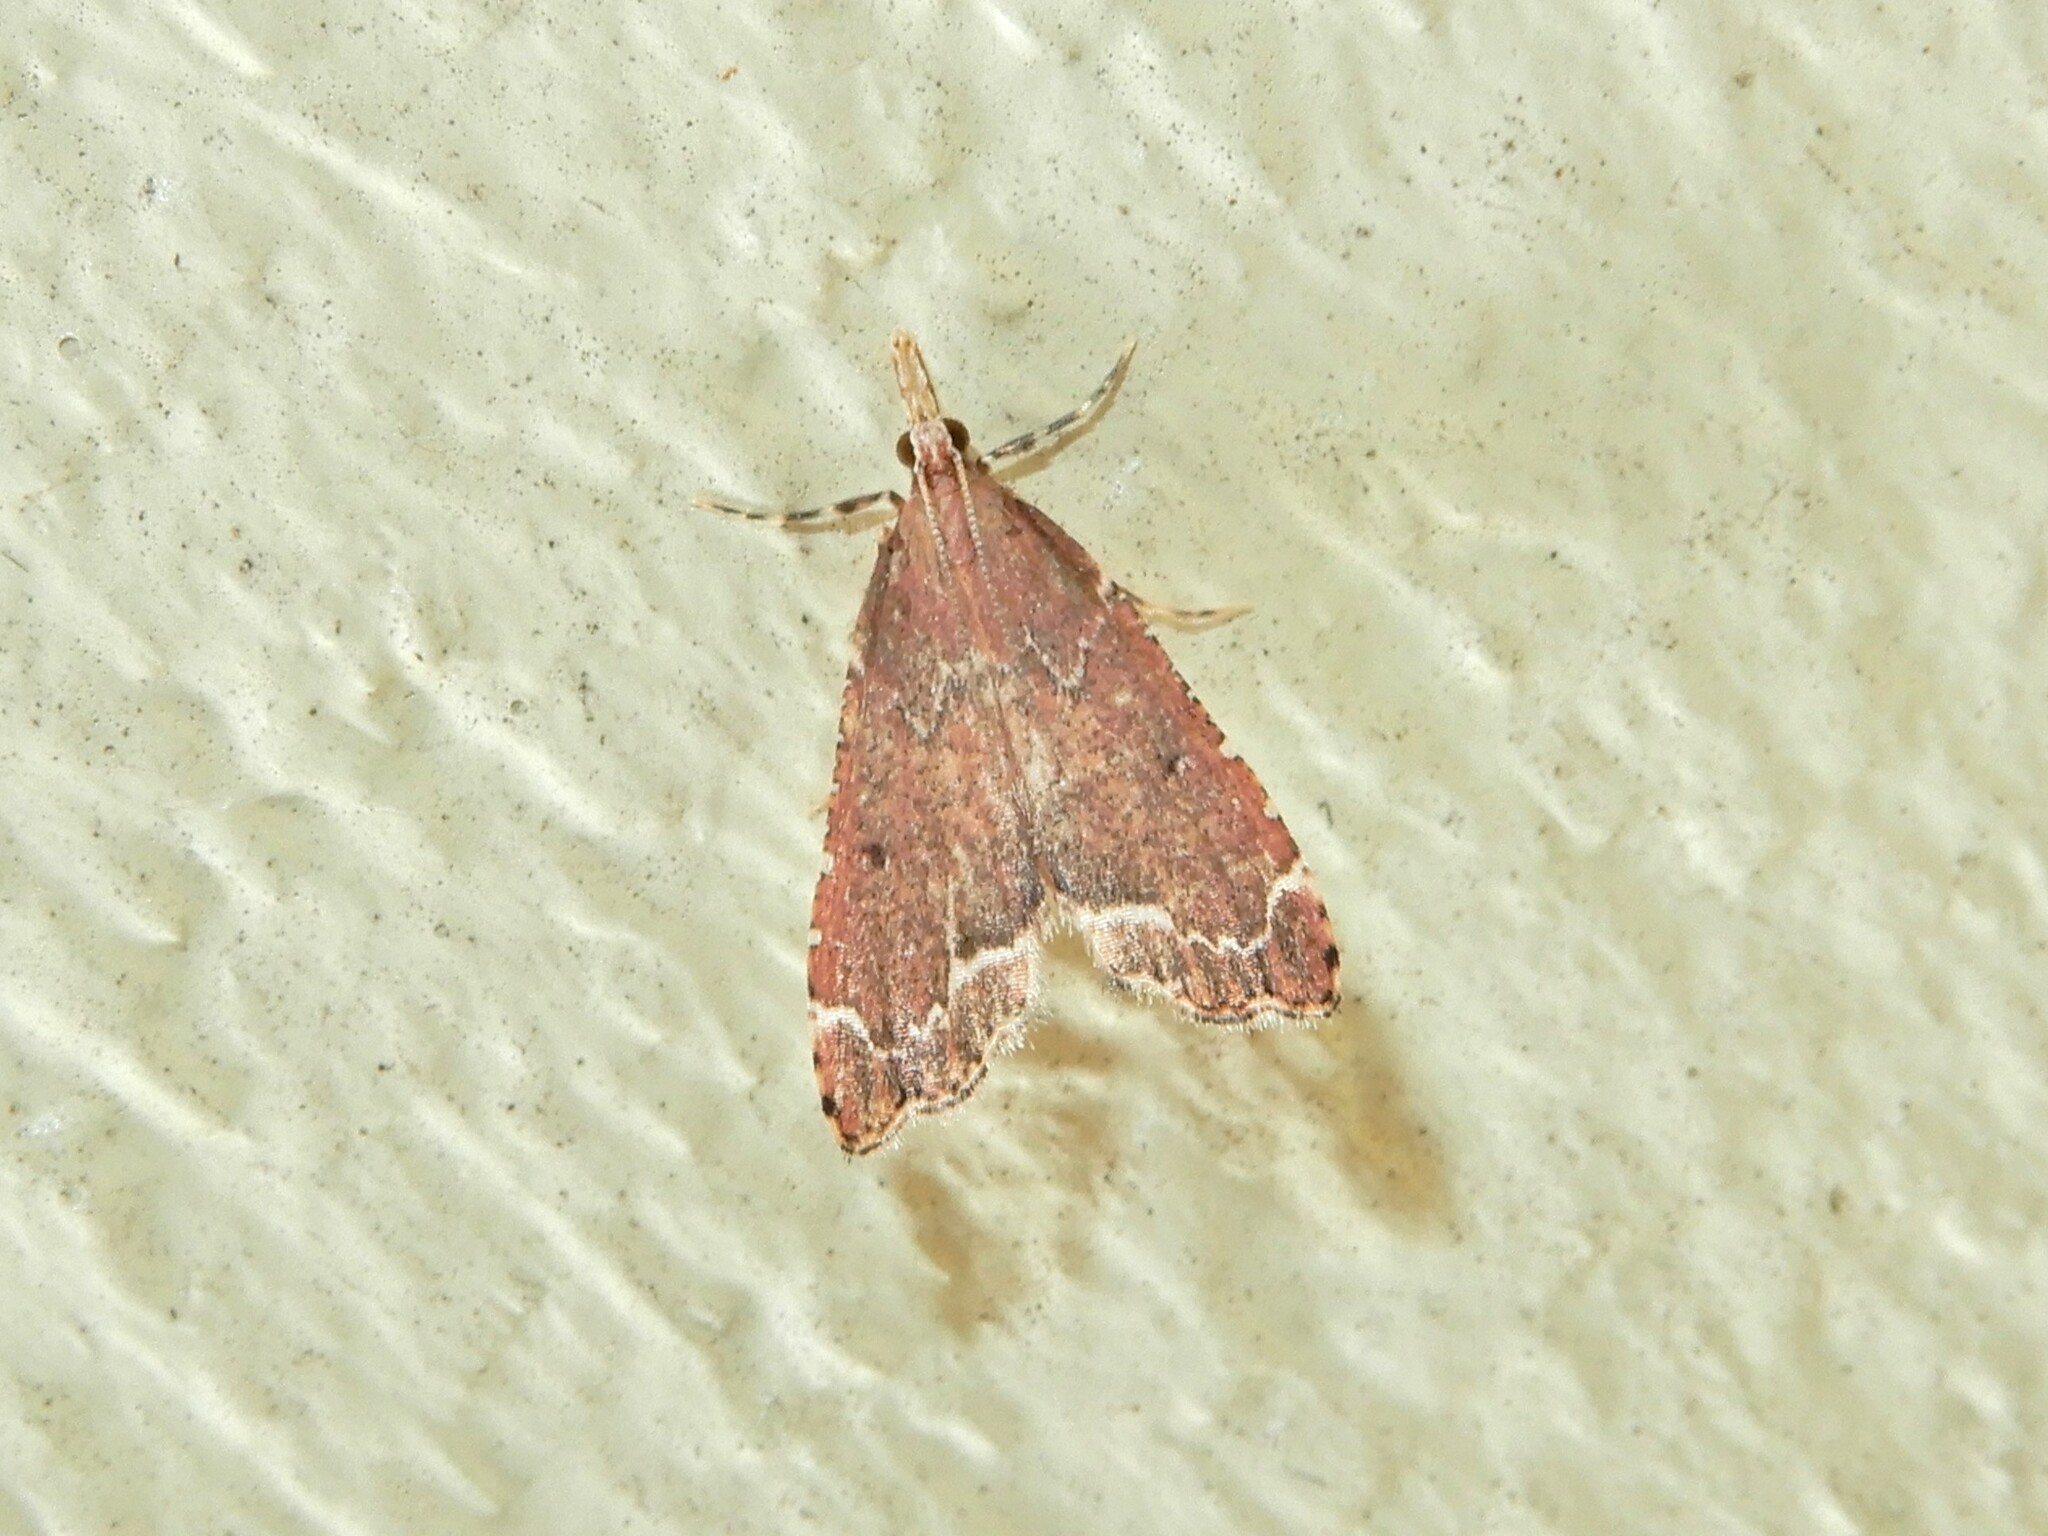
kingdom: Animalia
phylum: Arthropoda
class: Insecta
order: Lepidoptera
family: Crambidae
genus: Diplopseustis
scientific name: Diplopseustis perieresalis
